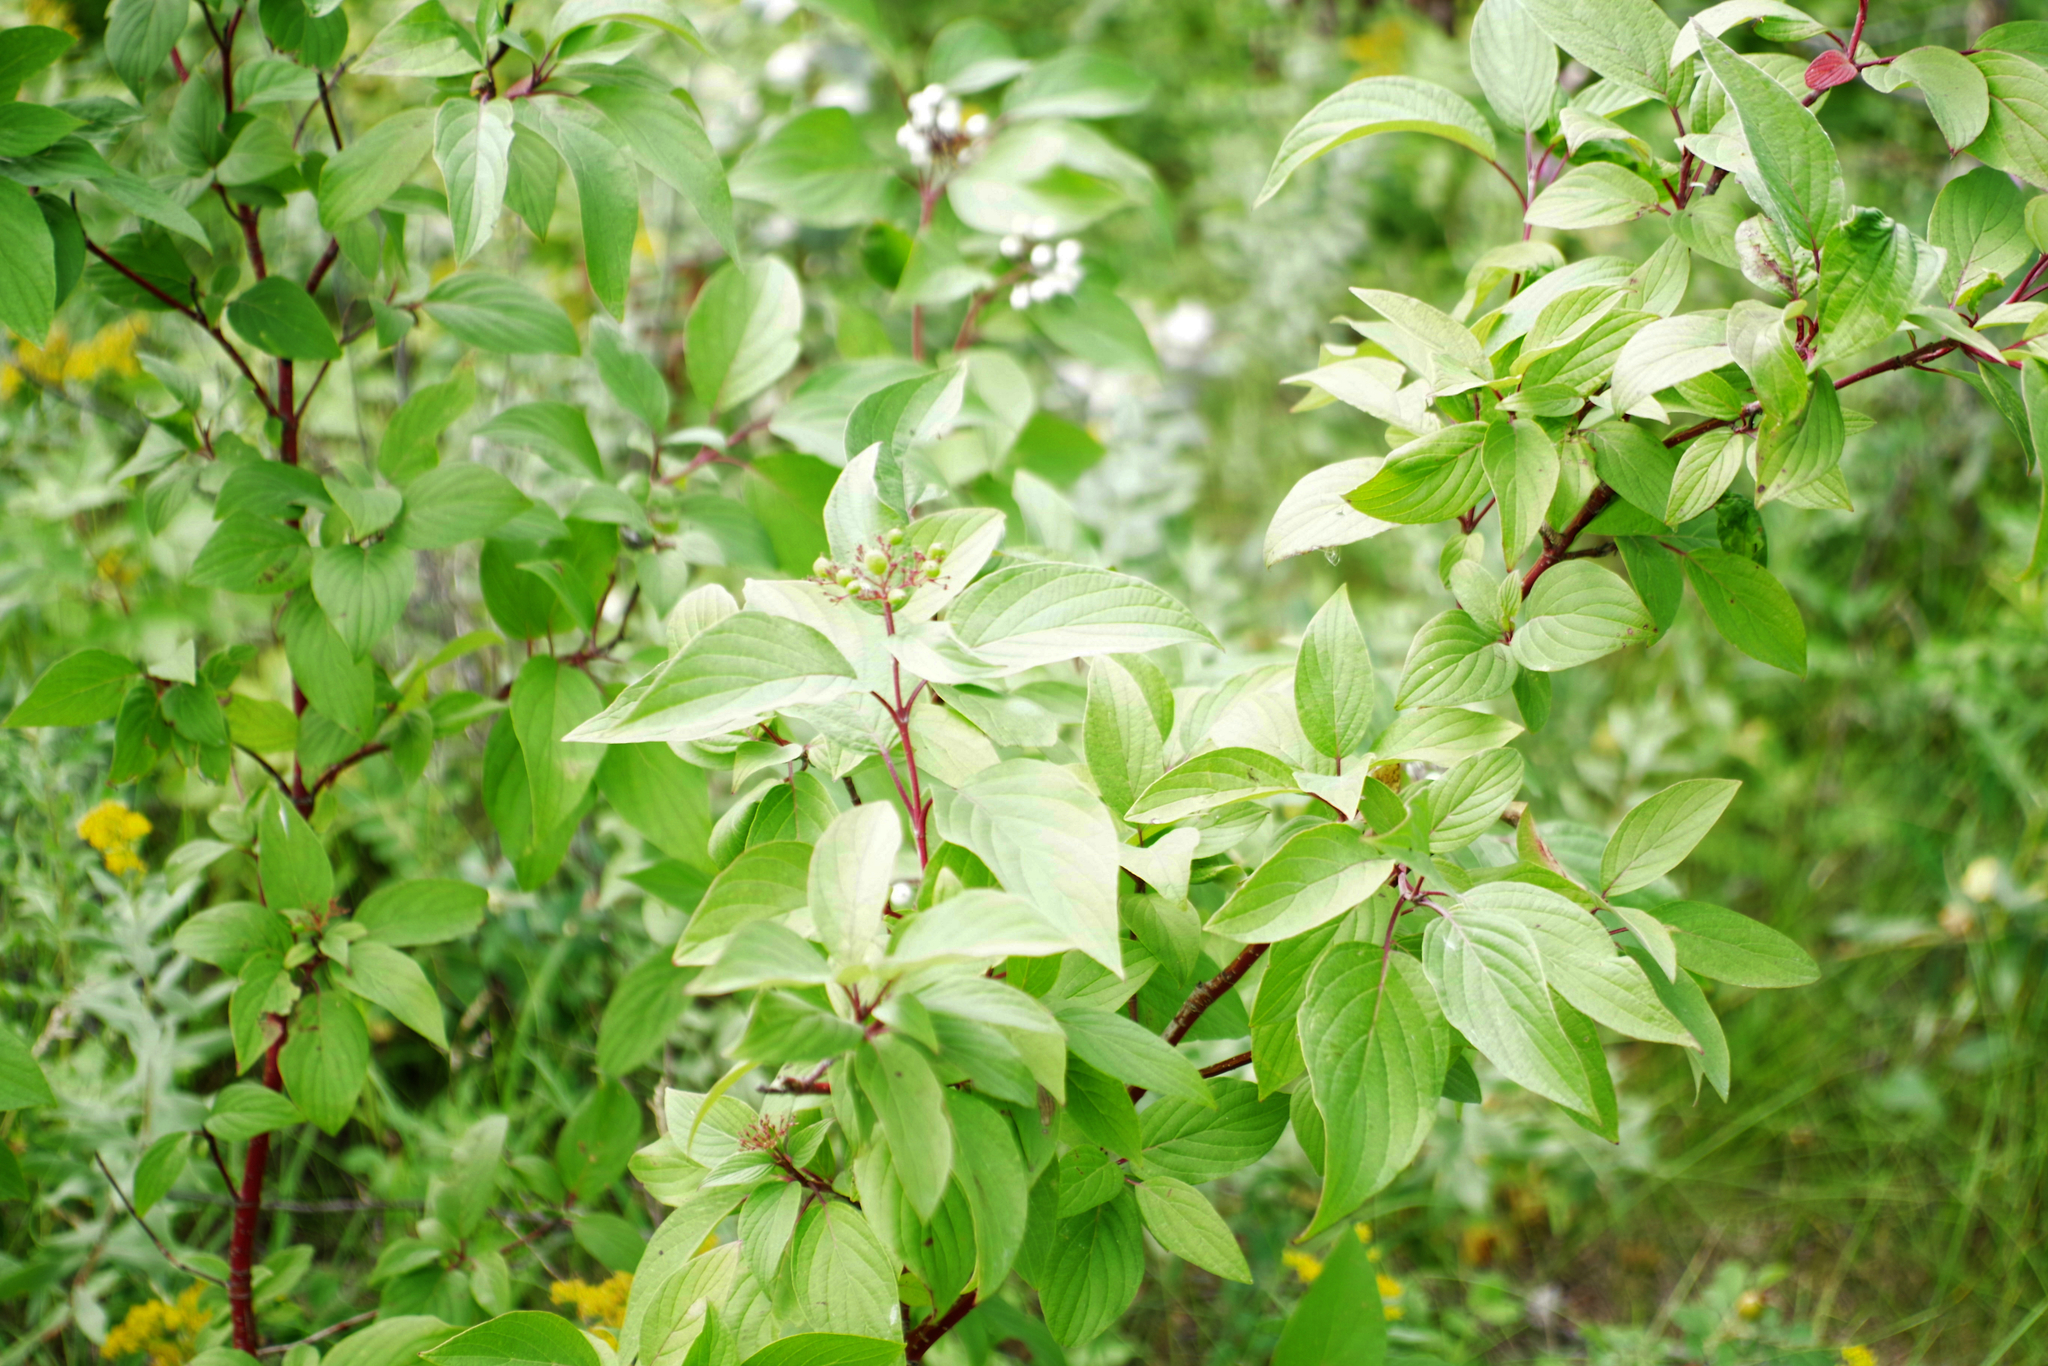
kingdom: Plantae
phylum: Tracheophyta
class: Magnoliopsida
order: Cornales
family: Cornaceae
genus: Cornus
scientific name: Cornus sericea
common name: Red-osier dogwood
